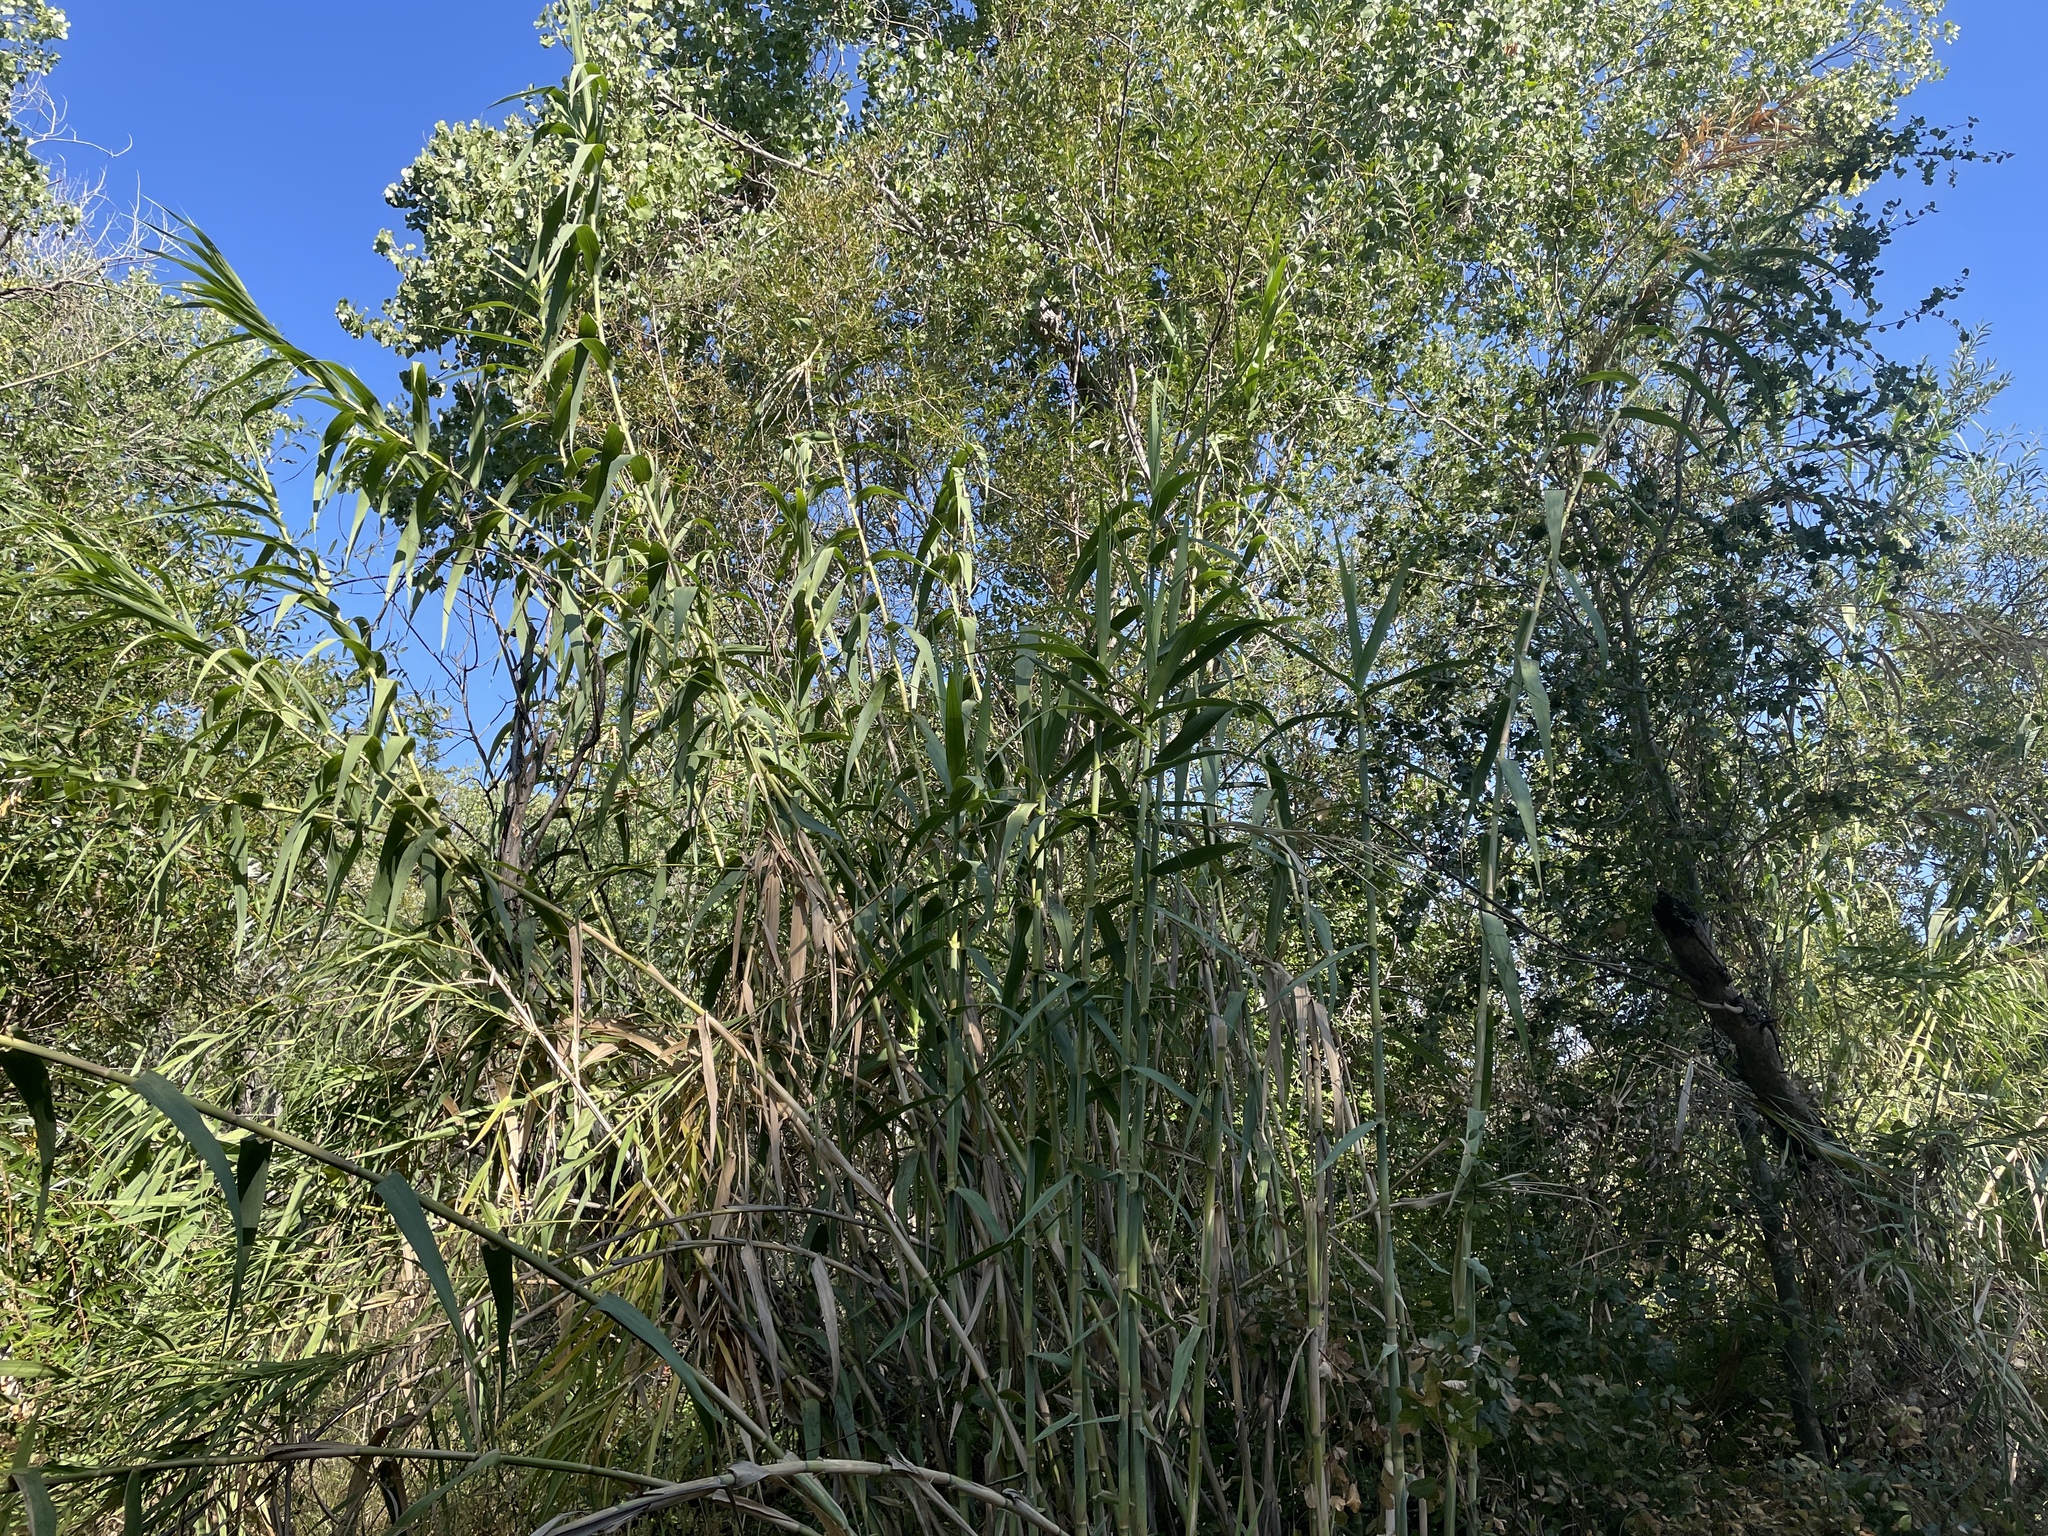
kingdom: Plantae
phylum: Tracheophyta
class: Liliopsida
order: Poales
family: Poaceae
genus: Arundo
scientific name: Arundo donax
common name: Giant reed
